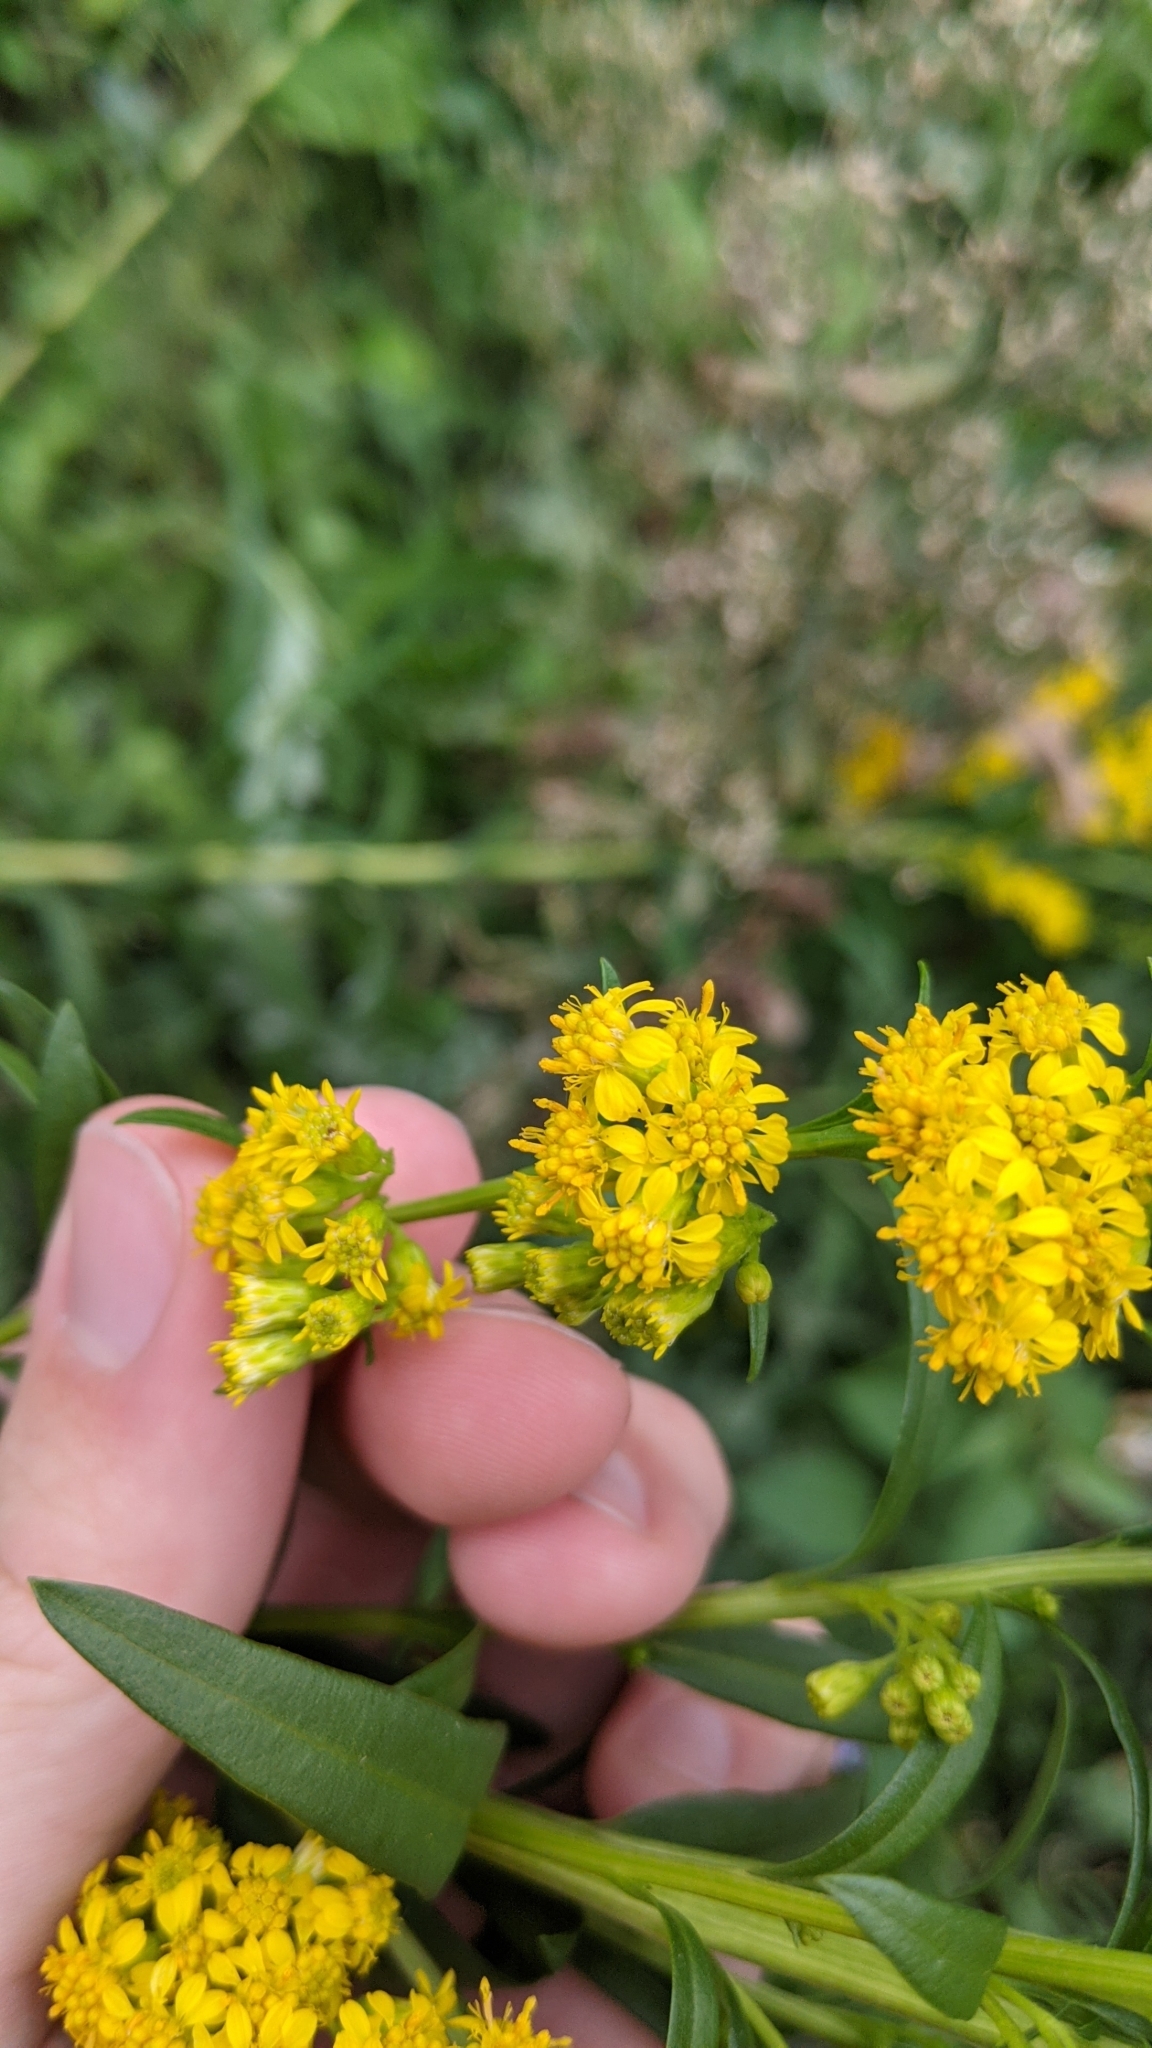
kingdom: Plantae
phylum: Tracheophyta
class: Magnoliopsida
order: Asterales
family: Asteraceae
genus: Solidago
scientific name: Solidago sempervirens
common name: Salt-marsh goldenrod
